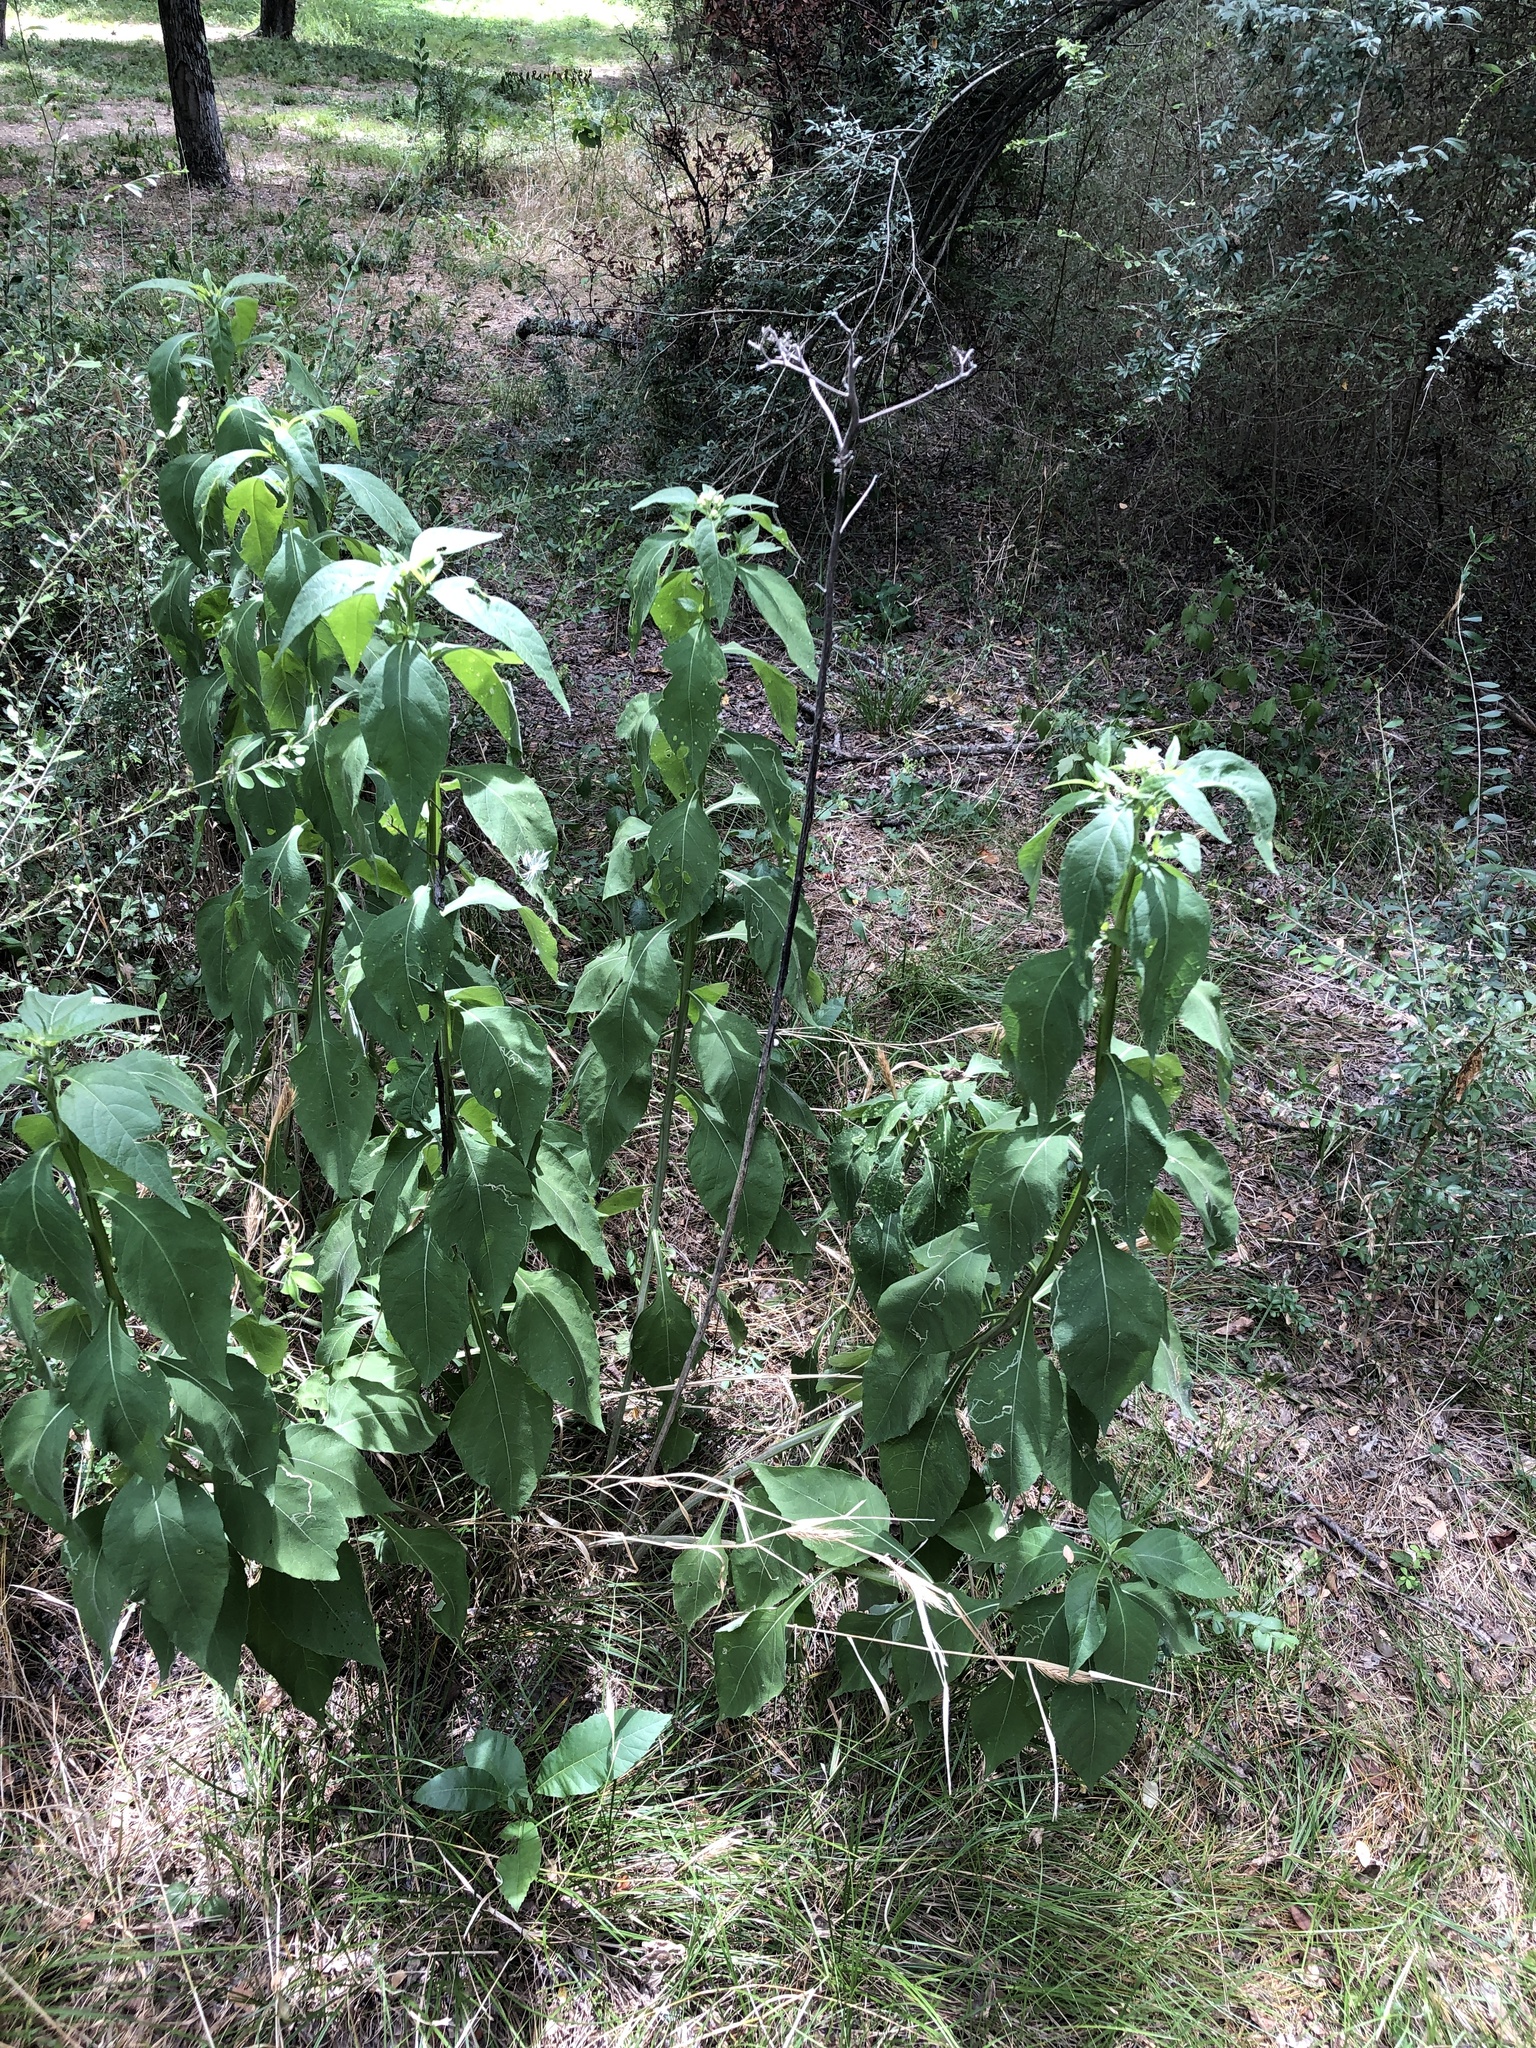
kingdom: Plantae
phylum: Tracheophyta
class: Magnoliopsida
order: Asterales
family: Asteraceae
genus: Verbesina
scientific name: Verbesina virginica
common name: Frostweed
